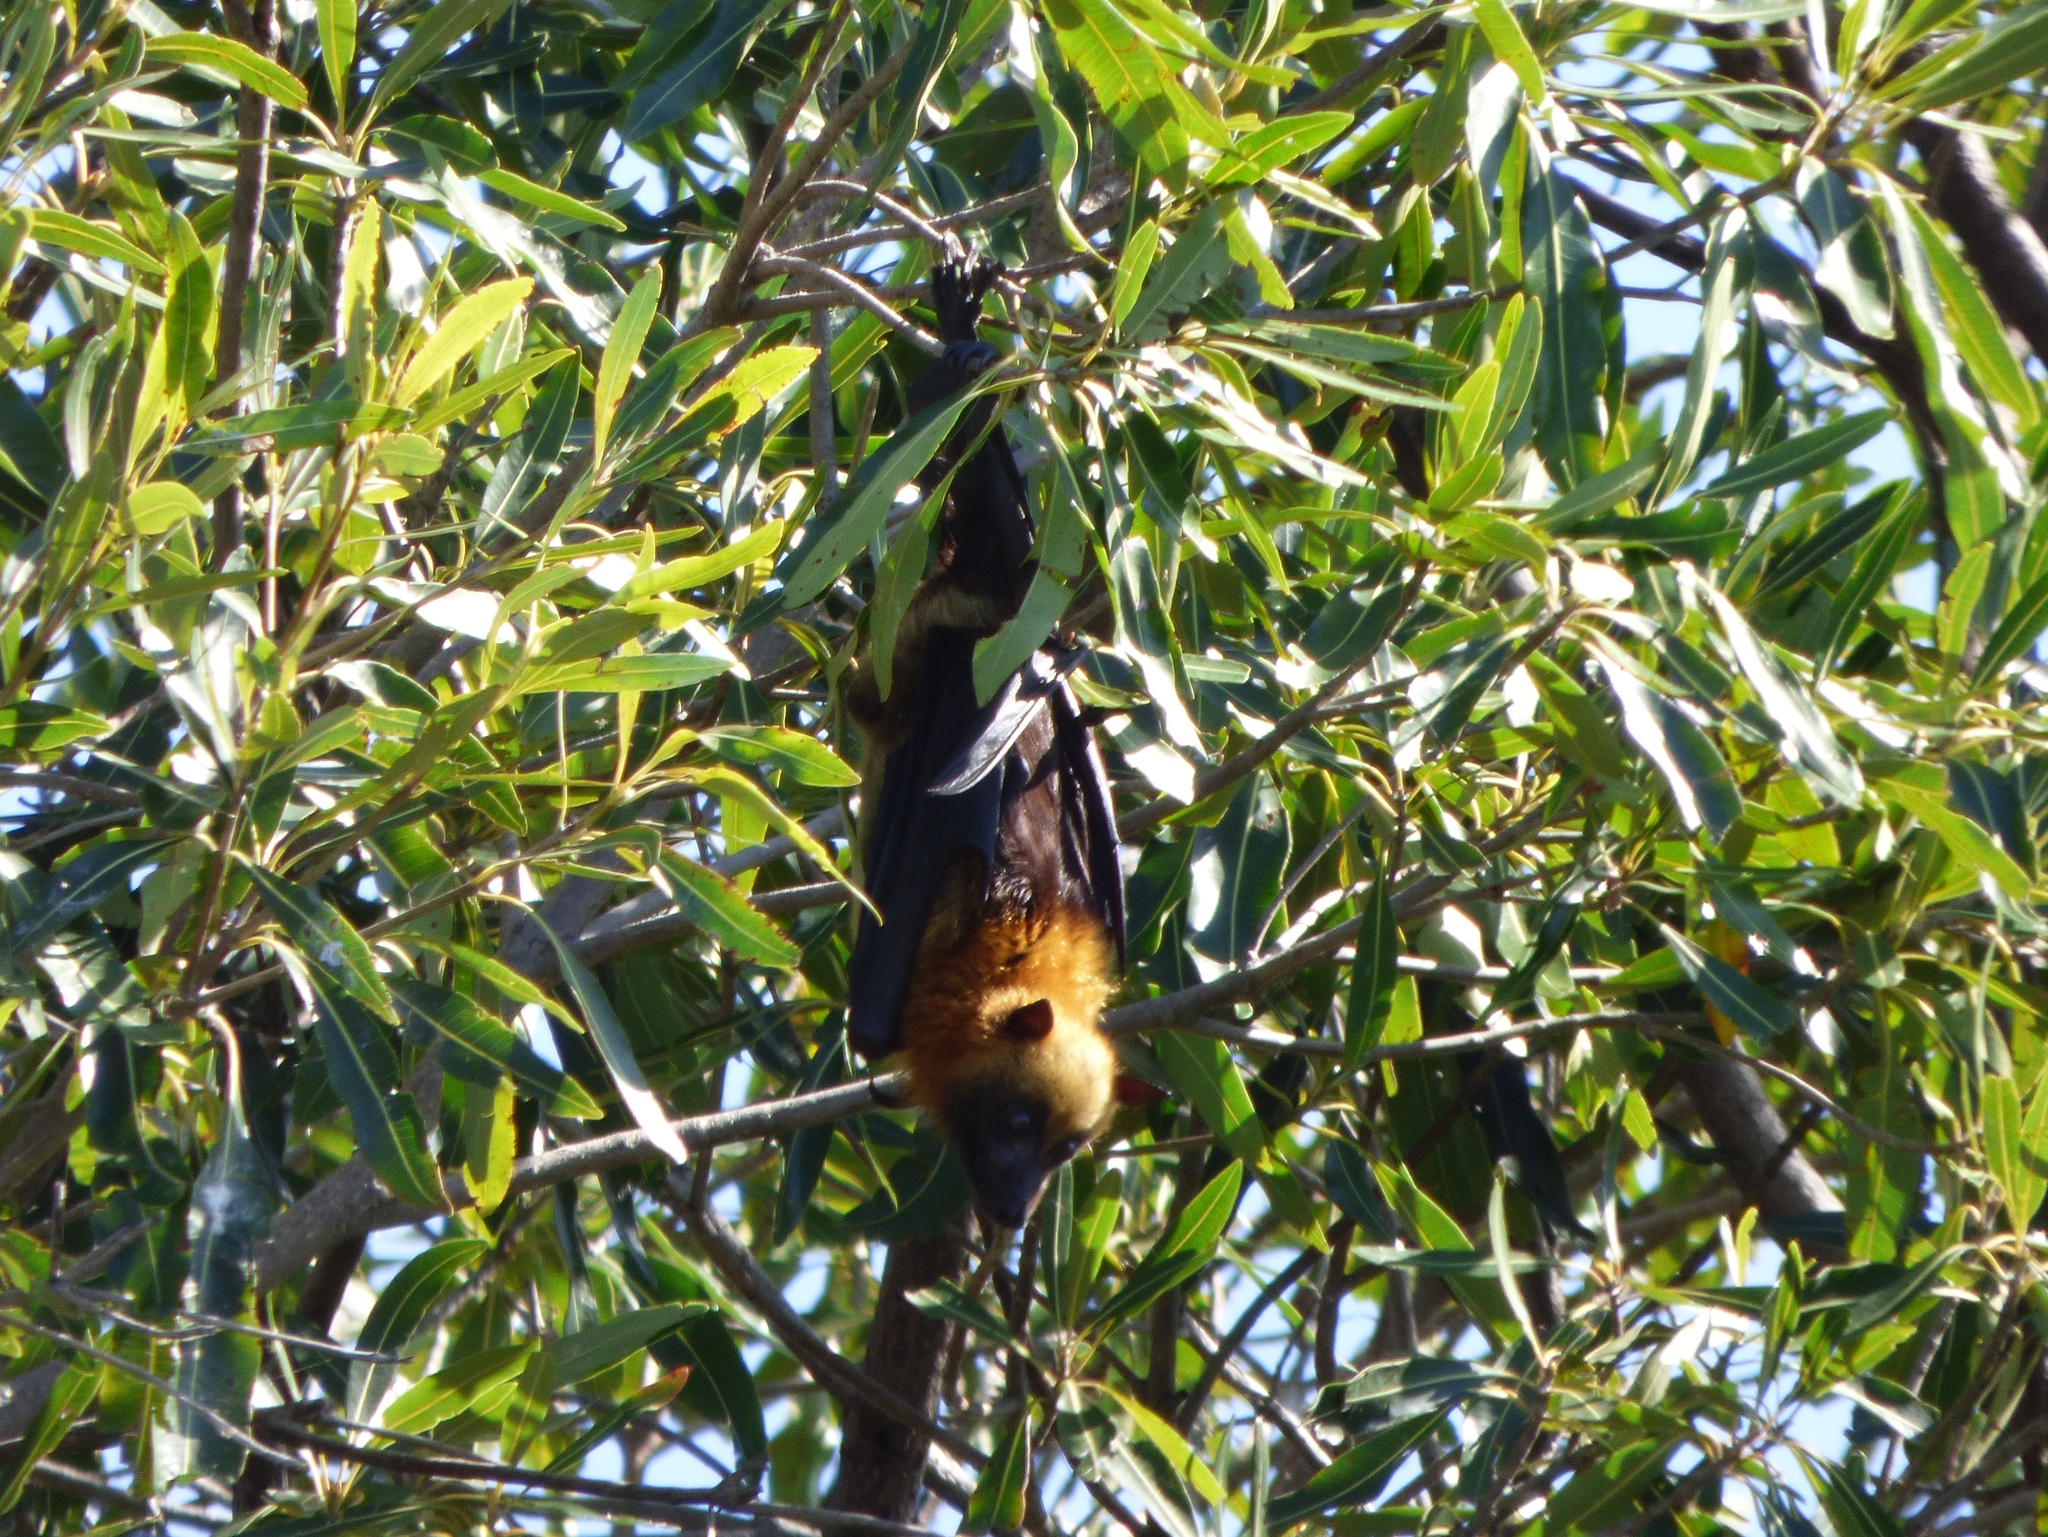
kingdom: Animalia
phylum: Chordata
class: Mammalia
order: Chiroptera
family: Pteropodidae
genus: Pteropus
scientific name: Pteropus rufus
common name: Madagascan flying fox
